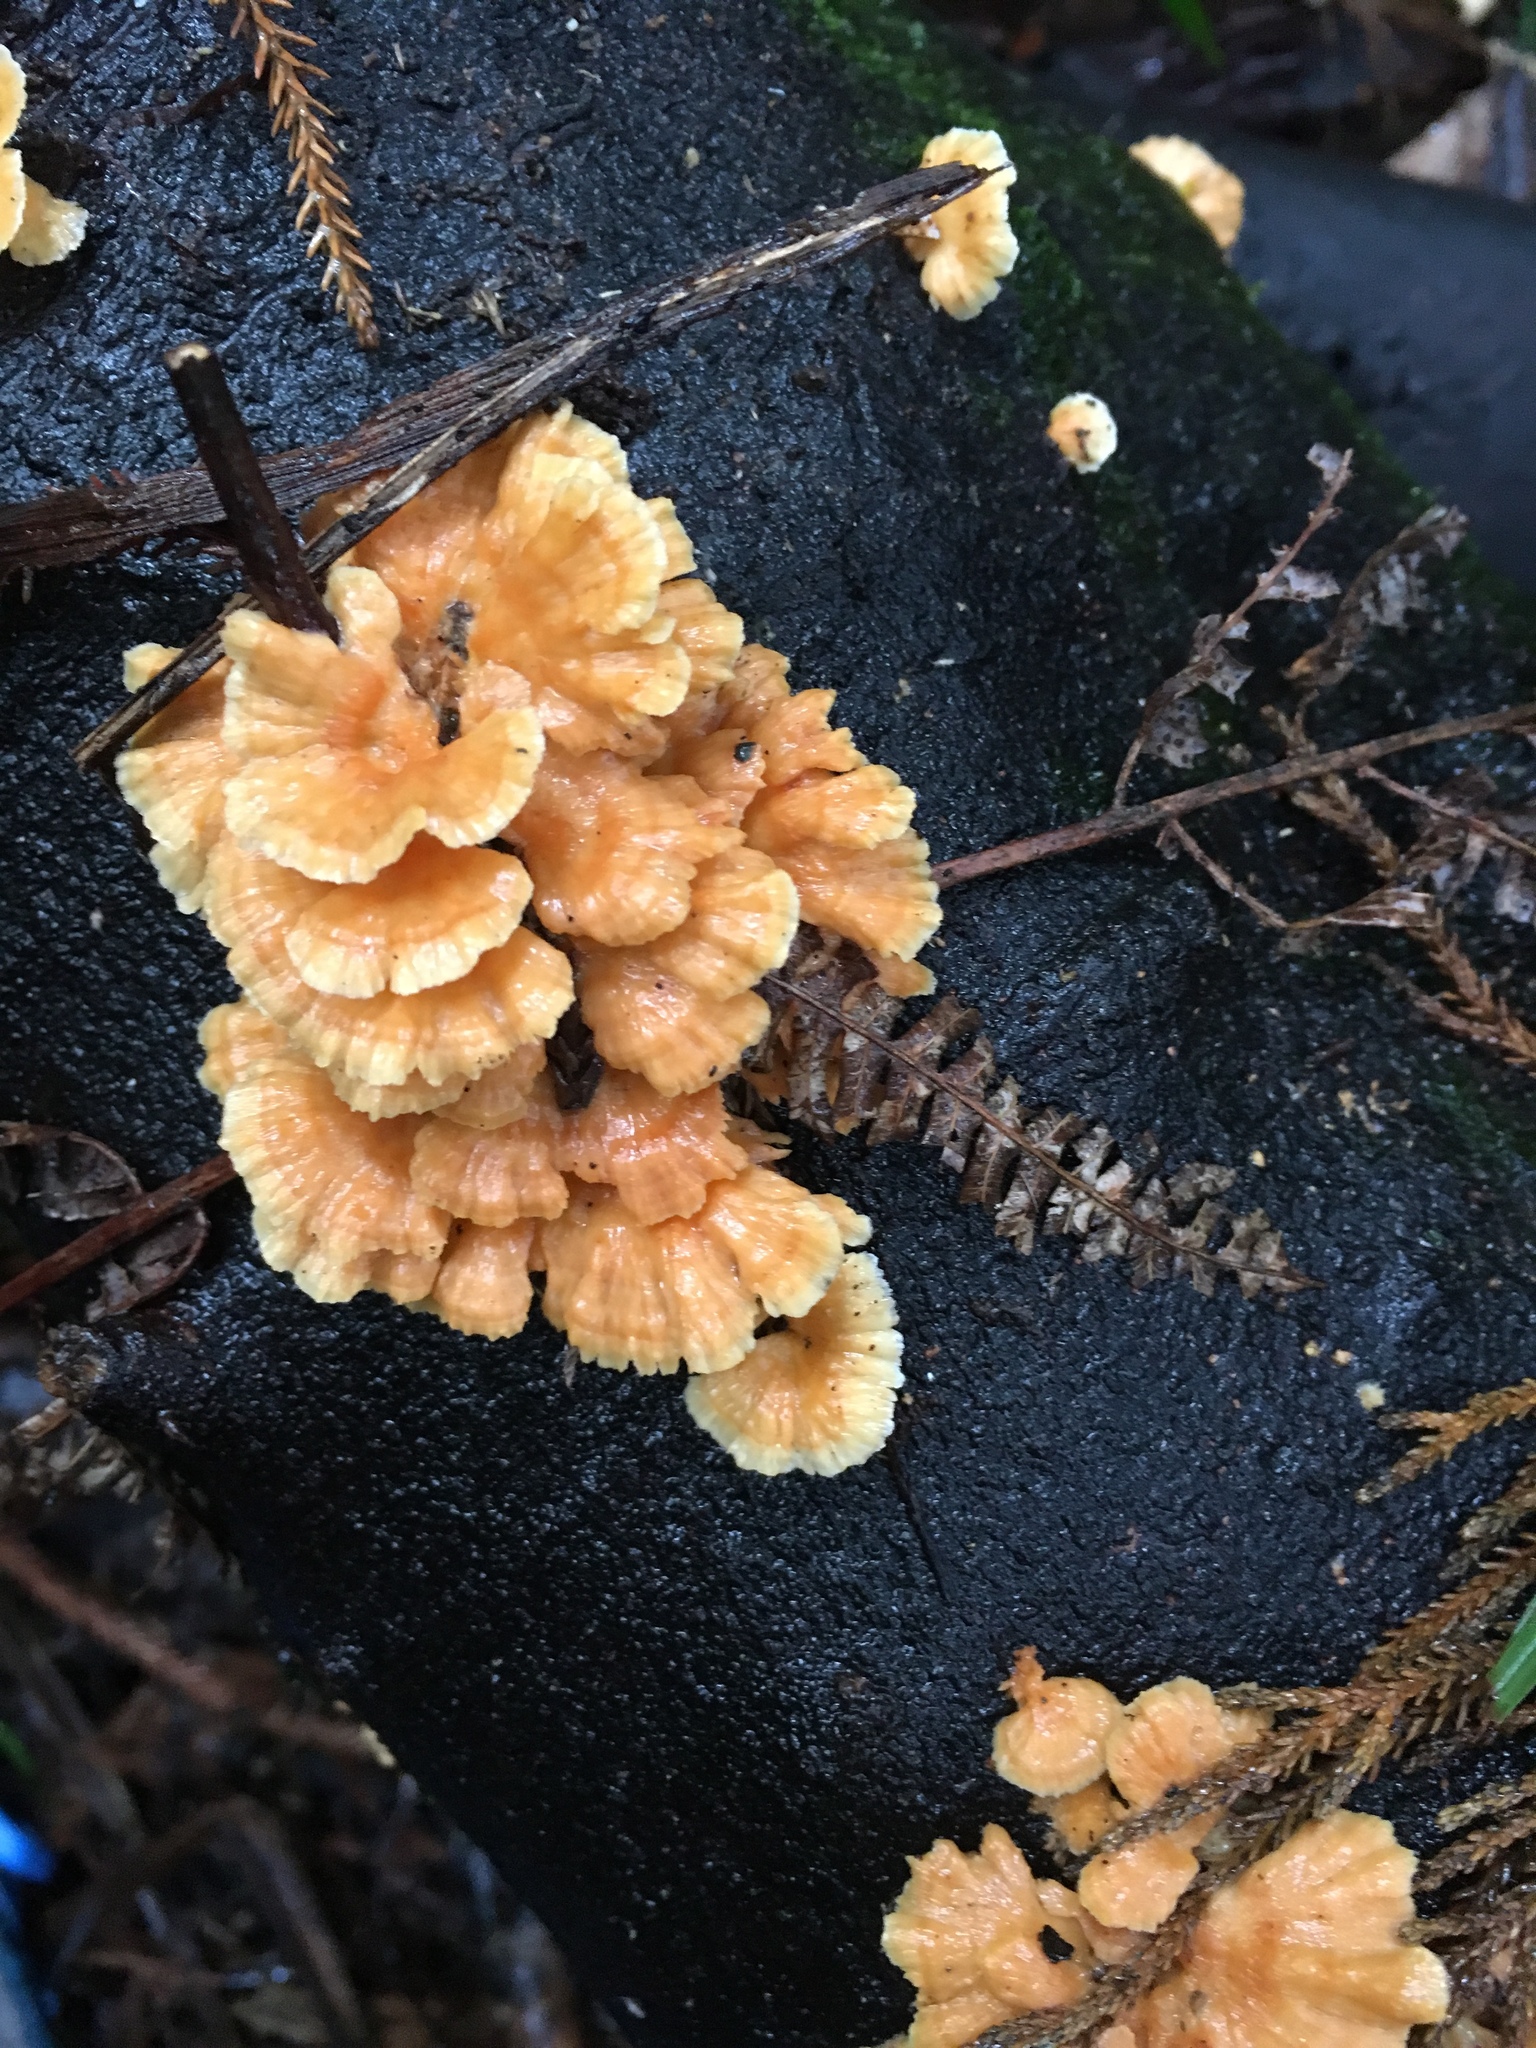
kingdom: Fungi
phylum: Basidiomycota
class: Agaricomycetes
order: Polyporales
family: Cerrenaceae
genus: Cerrena
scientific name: Cerrena zonata
